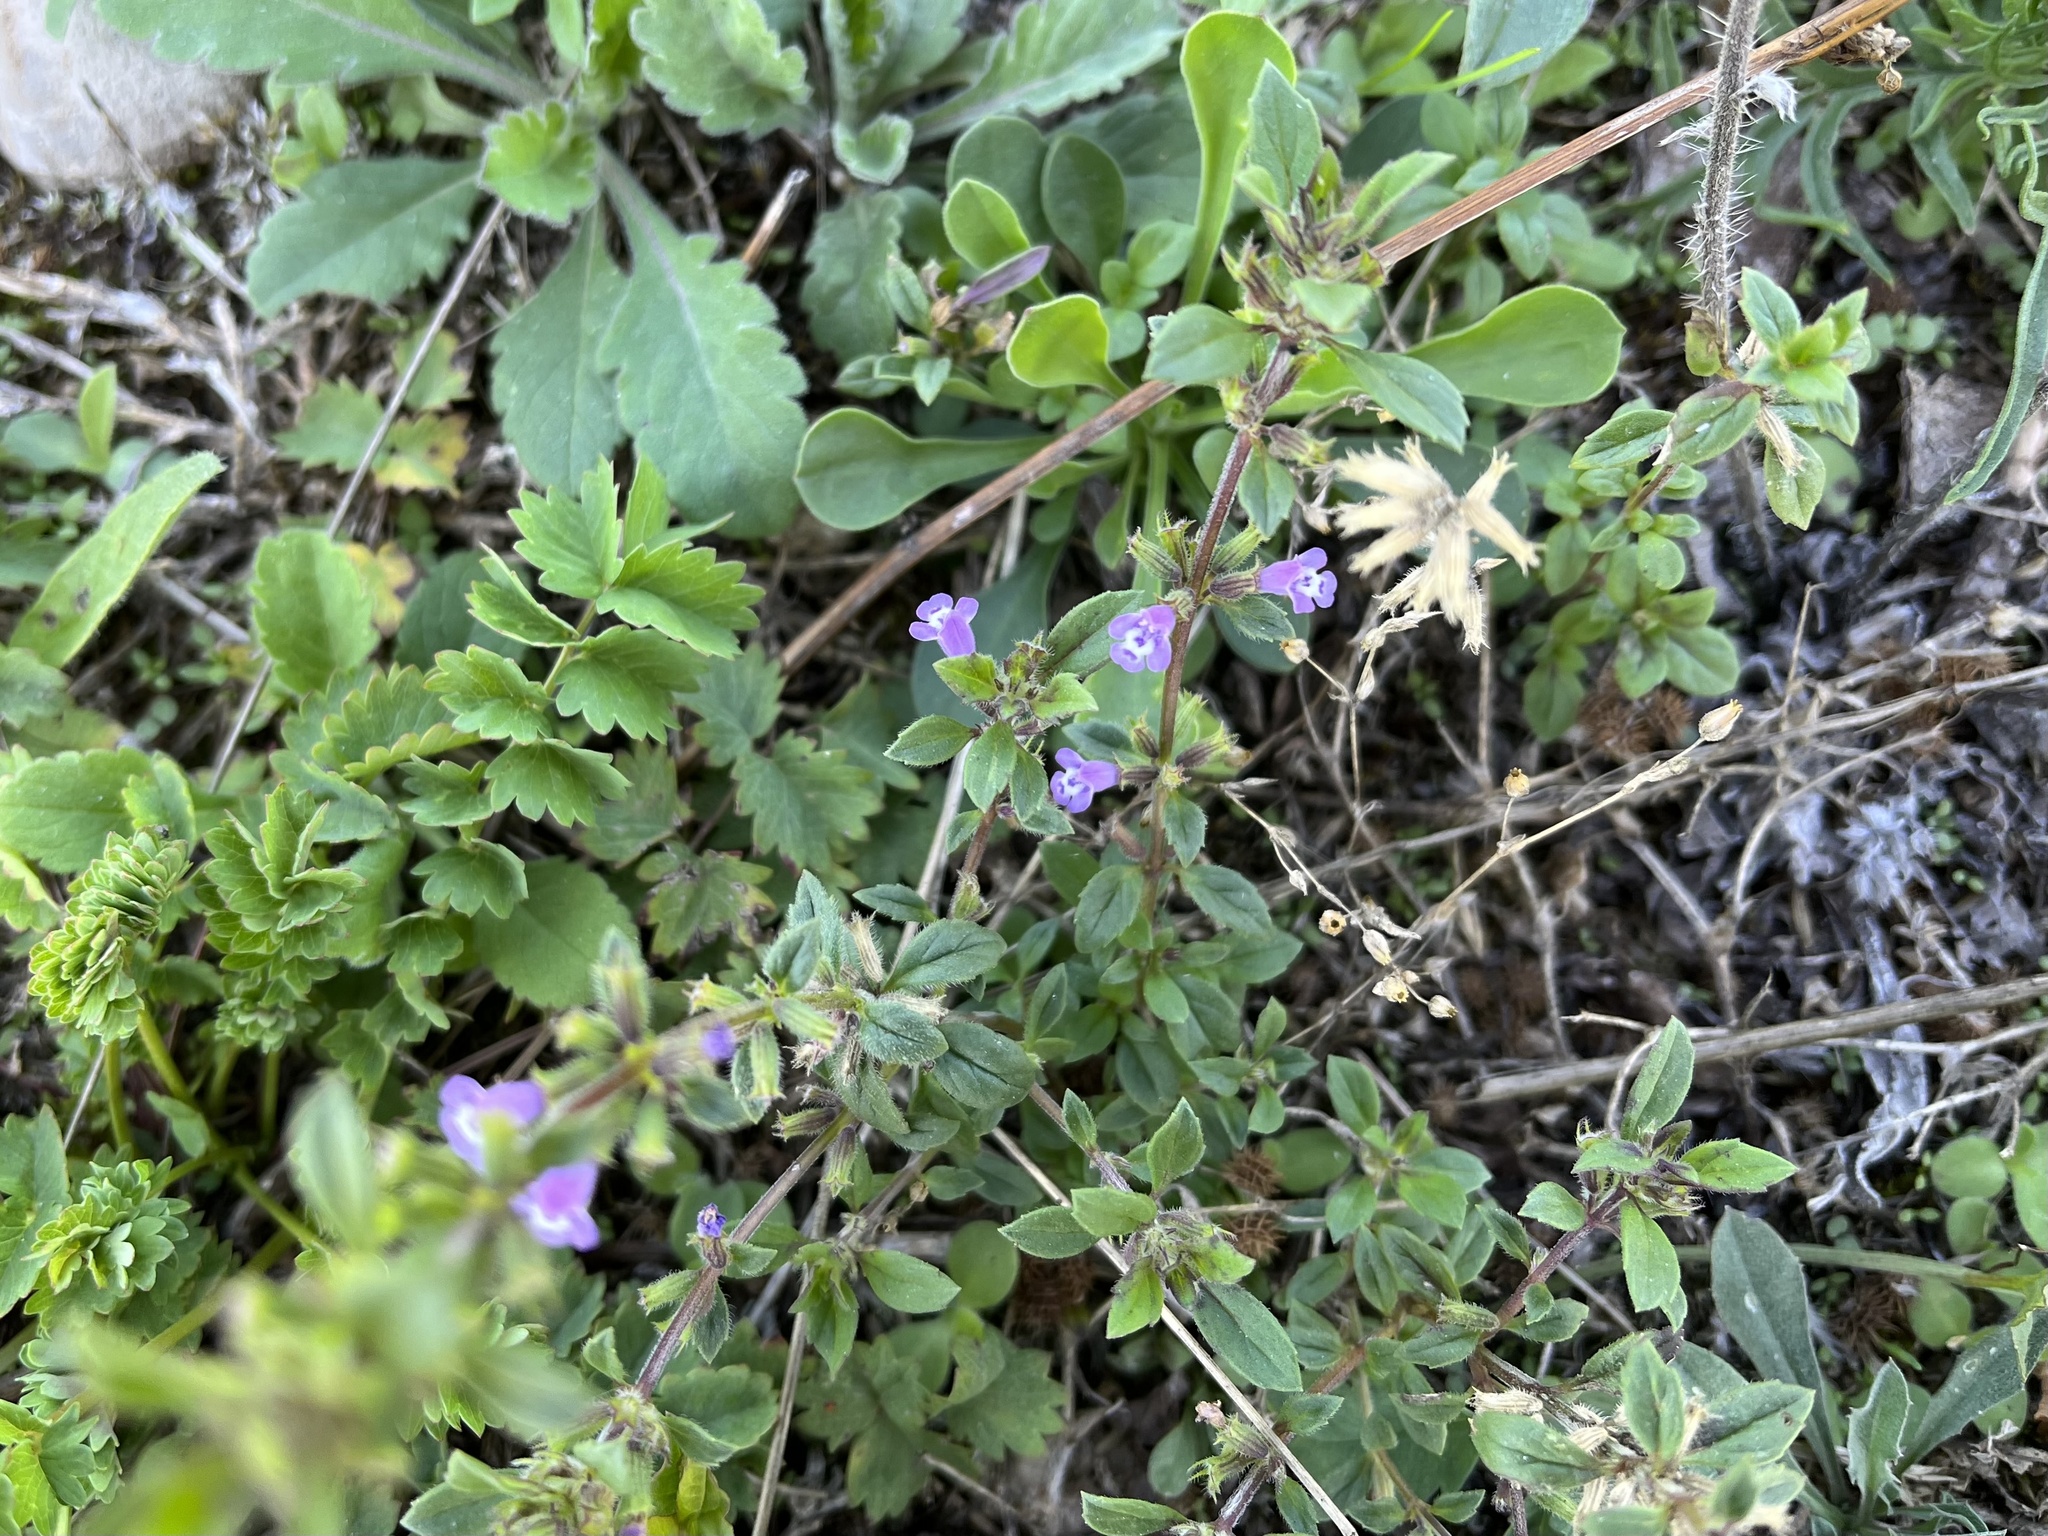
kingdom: Plantae
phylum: Tracheophyta
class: Magnoliopsida
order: Lamiales
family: Lamiaceae
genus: Clinopodium
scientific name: Clinopodium acinos
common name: Basil thyme
